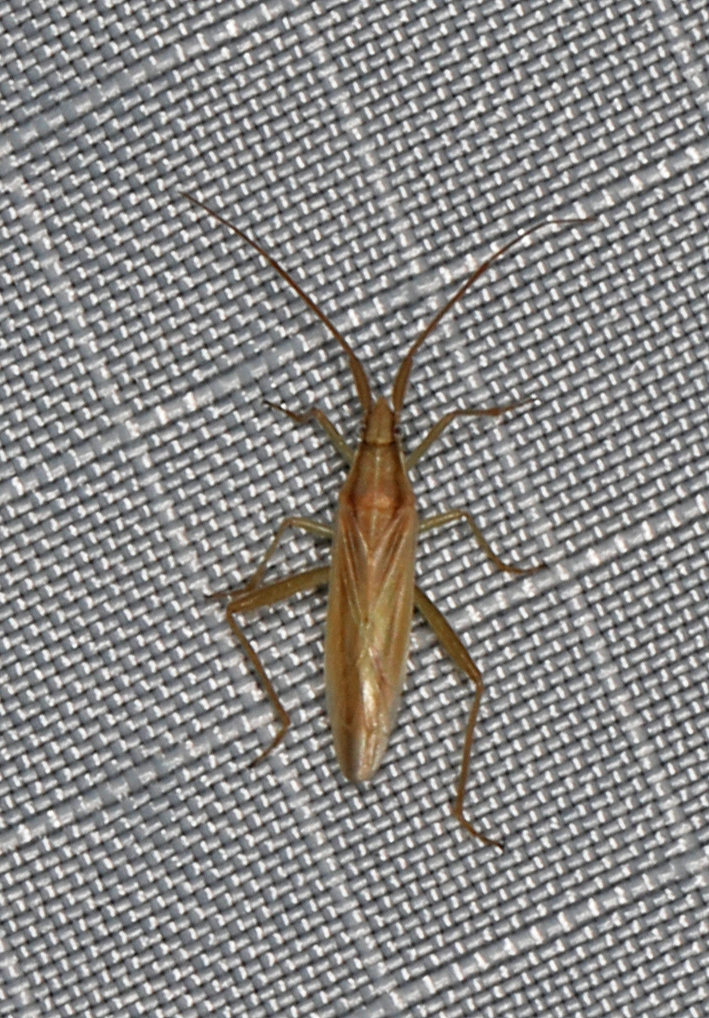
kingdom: Animalia
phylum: Arthropoda
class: Insecta
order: Hemiptera
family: Miridae
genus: Stenodema
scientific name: Stenodema trispinosa
